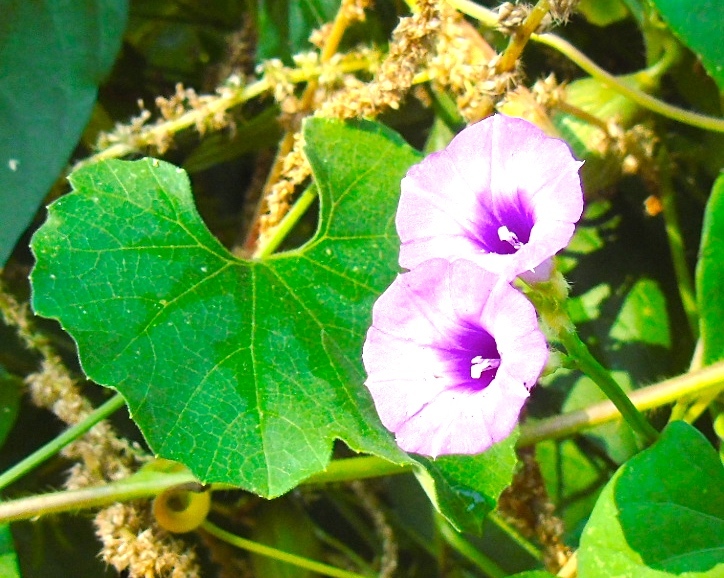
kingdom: Plantae
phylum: Tracheophyta
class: Magnoliopsida
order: Solanales
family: Convolvulaceae
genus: Ipomoea
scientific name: Ipomoea triloba
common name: Little-bell
